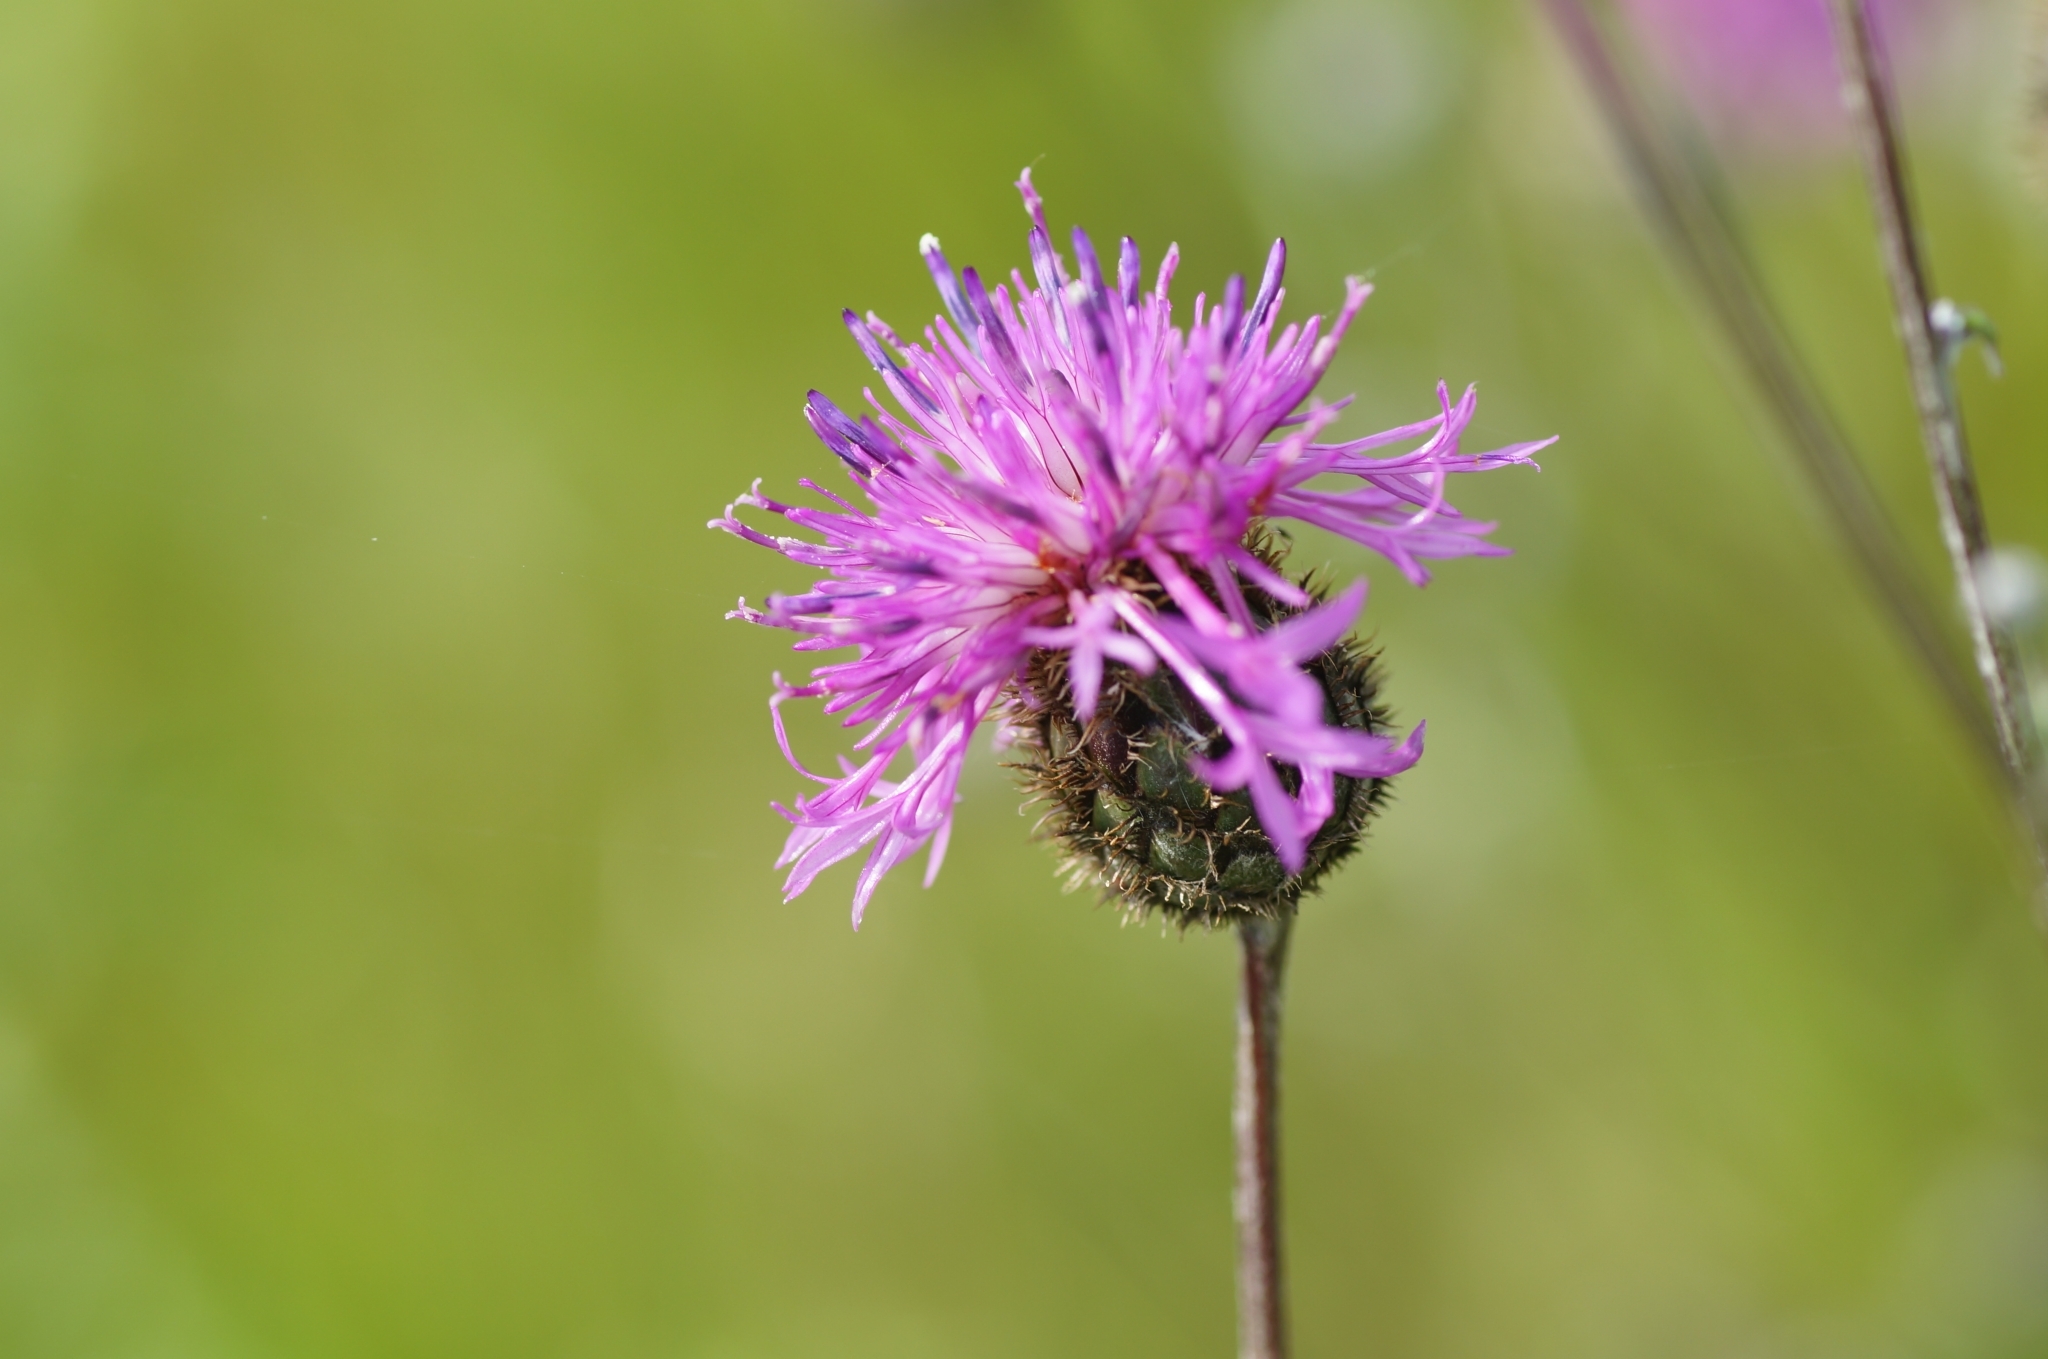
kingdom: Plantae
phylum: Tracheophyta
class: Magnoliopsida
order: Asterales
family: Asteraceae
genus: Centaurea
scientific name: Centaurea scabiosa
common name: Greater knapweed
